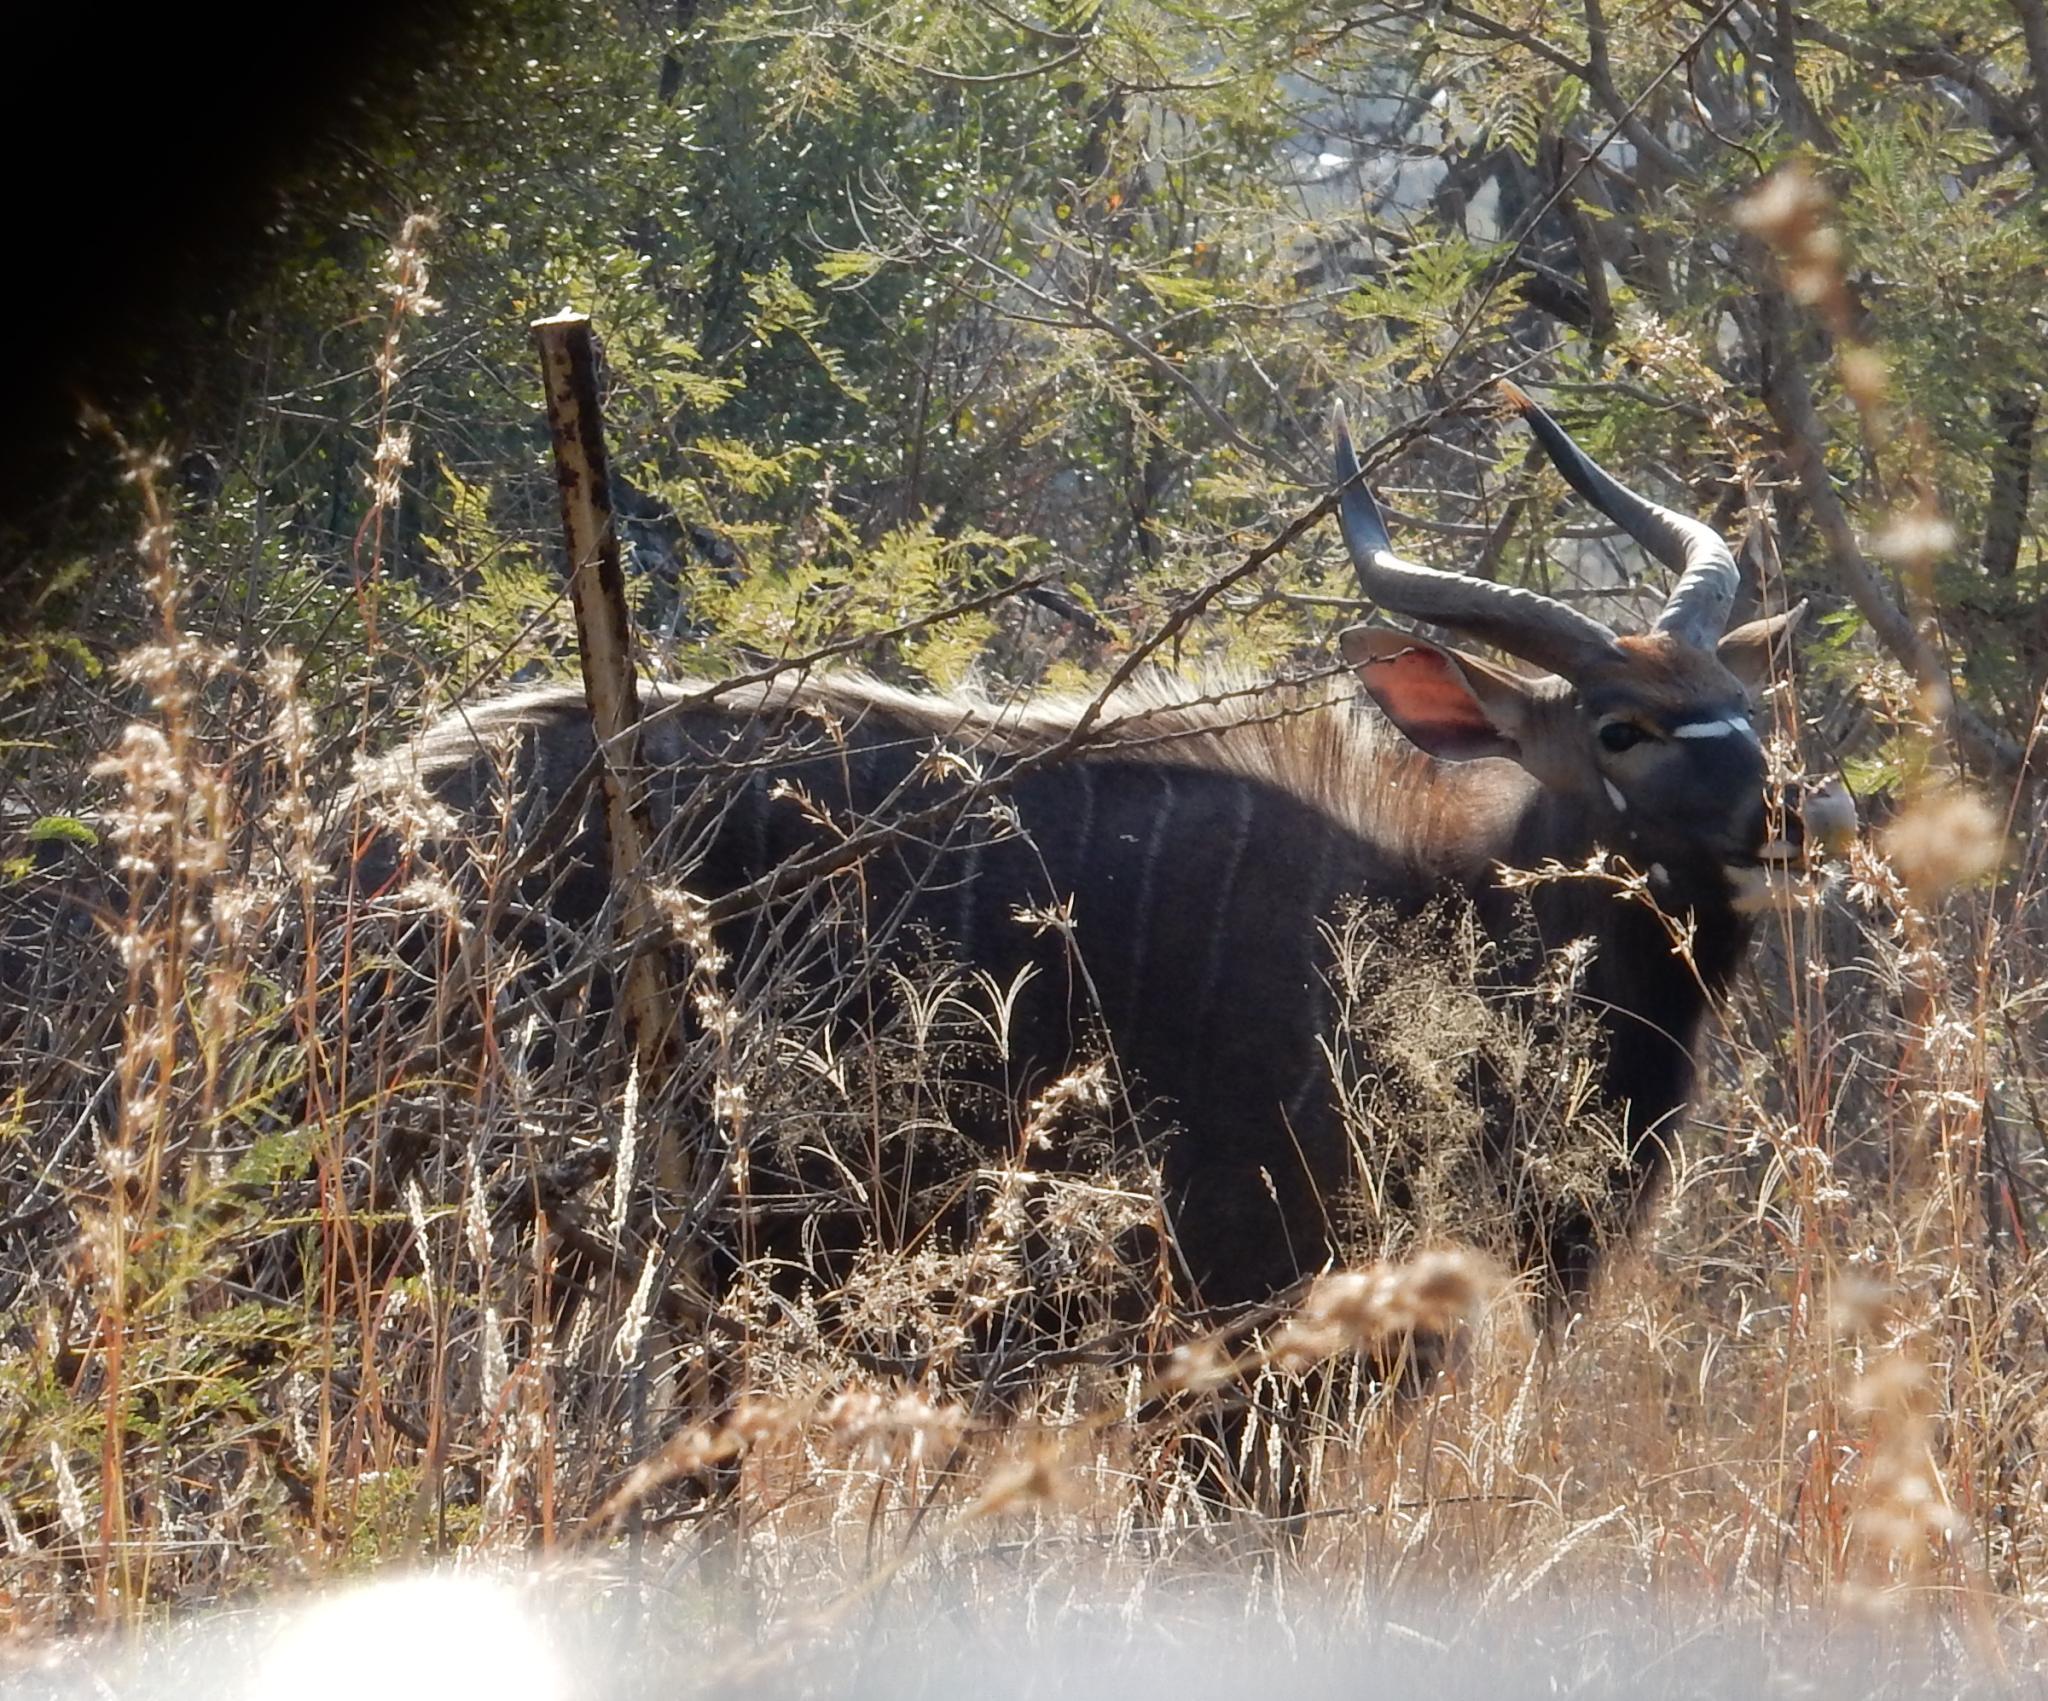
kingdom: Animalia
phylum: Chordata
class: Mammalia
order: Artiodactyla
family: Bovidae
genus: Tragelaphus
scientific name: Tragelaphus angasii
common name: Nyala
